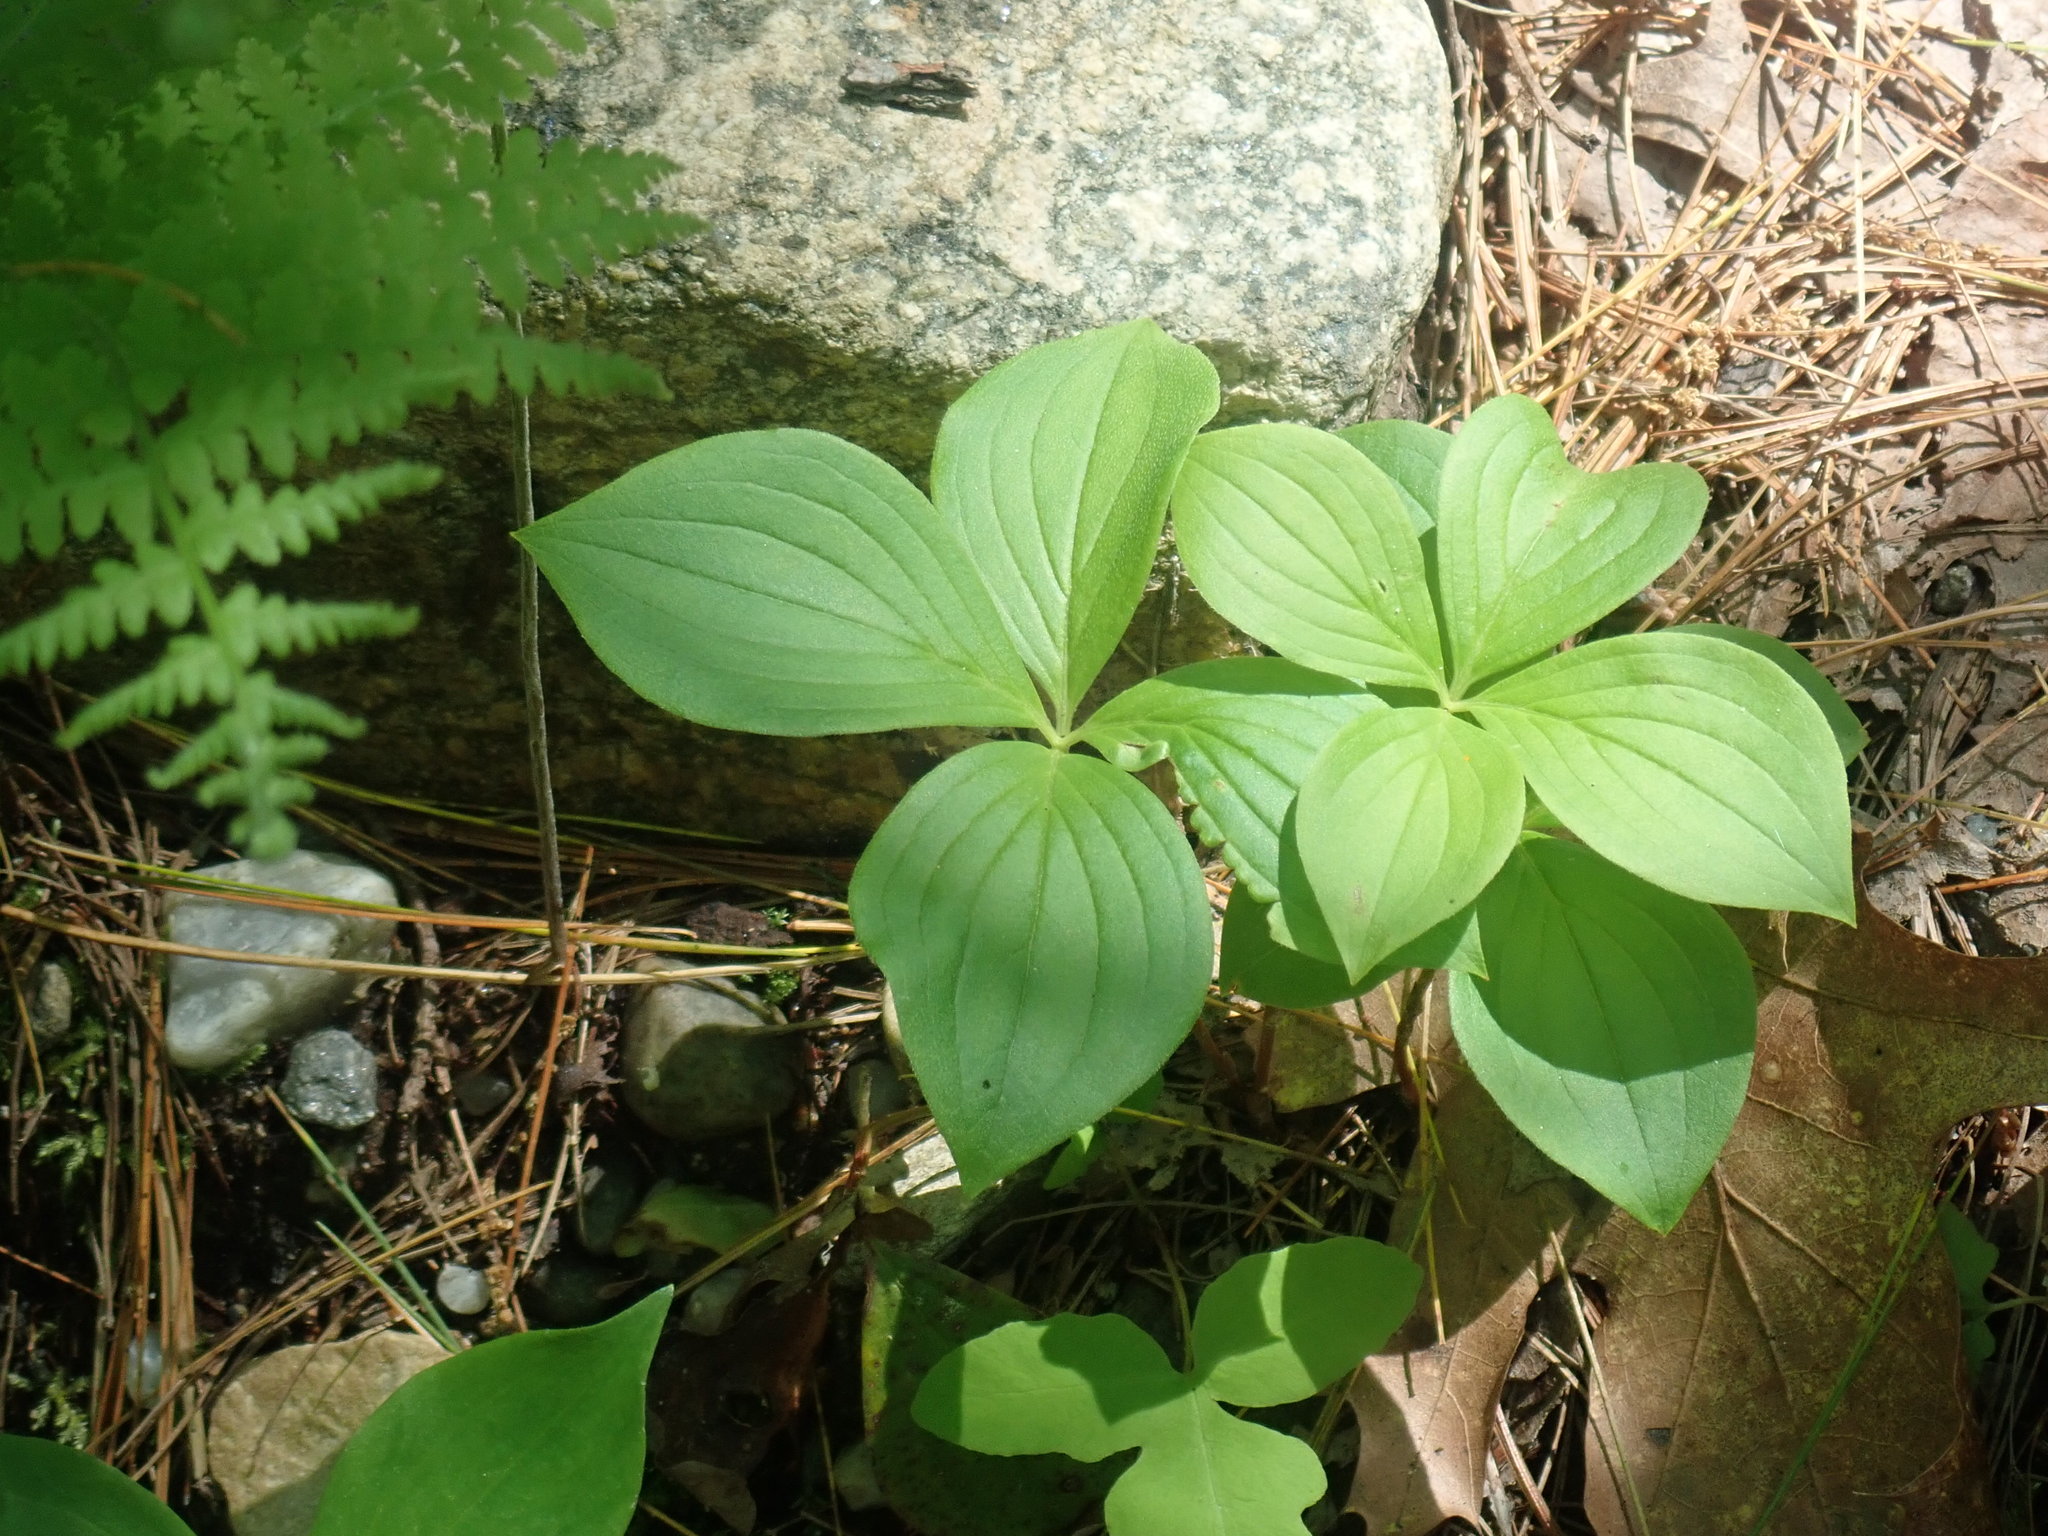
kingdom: Plantae
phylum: Tracheophyta
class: Magnoliopsida
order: Cornales
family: Cornaceae
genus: Cornus
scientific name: Cornus canadensis
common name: Creeping dogwood
